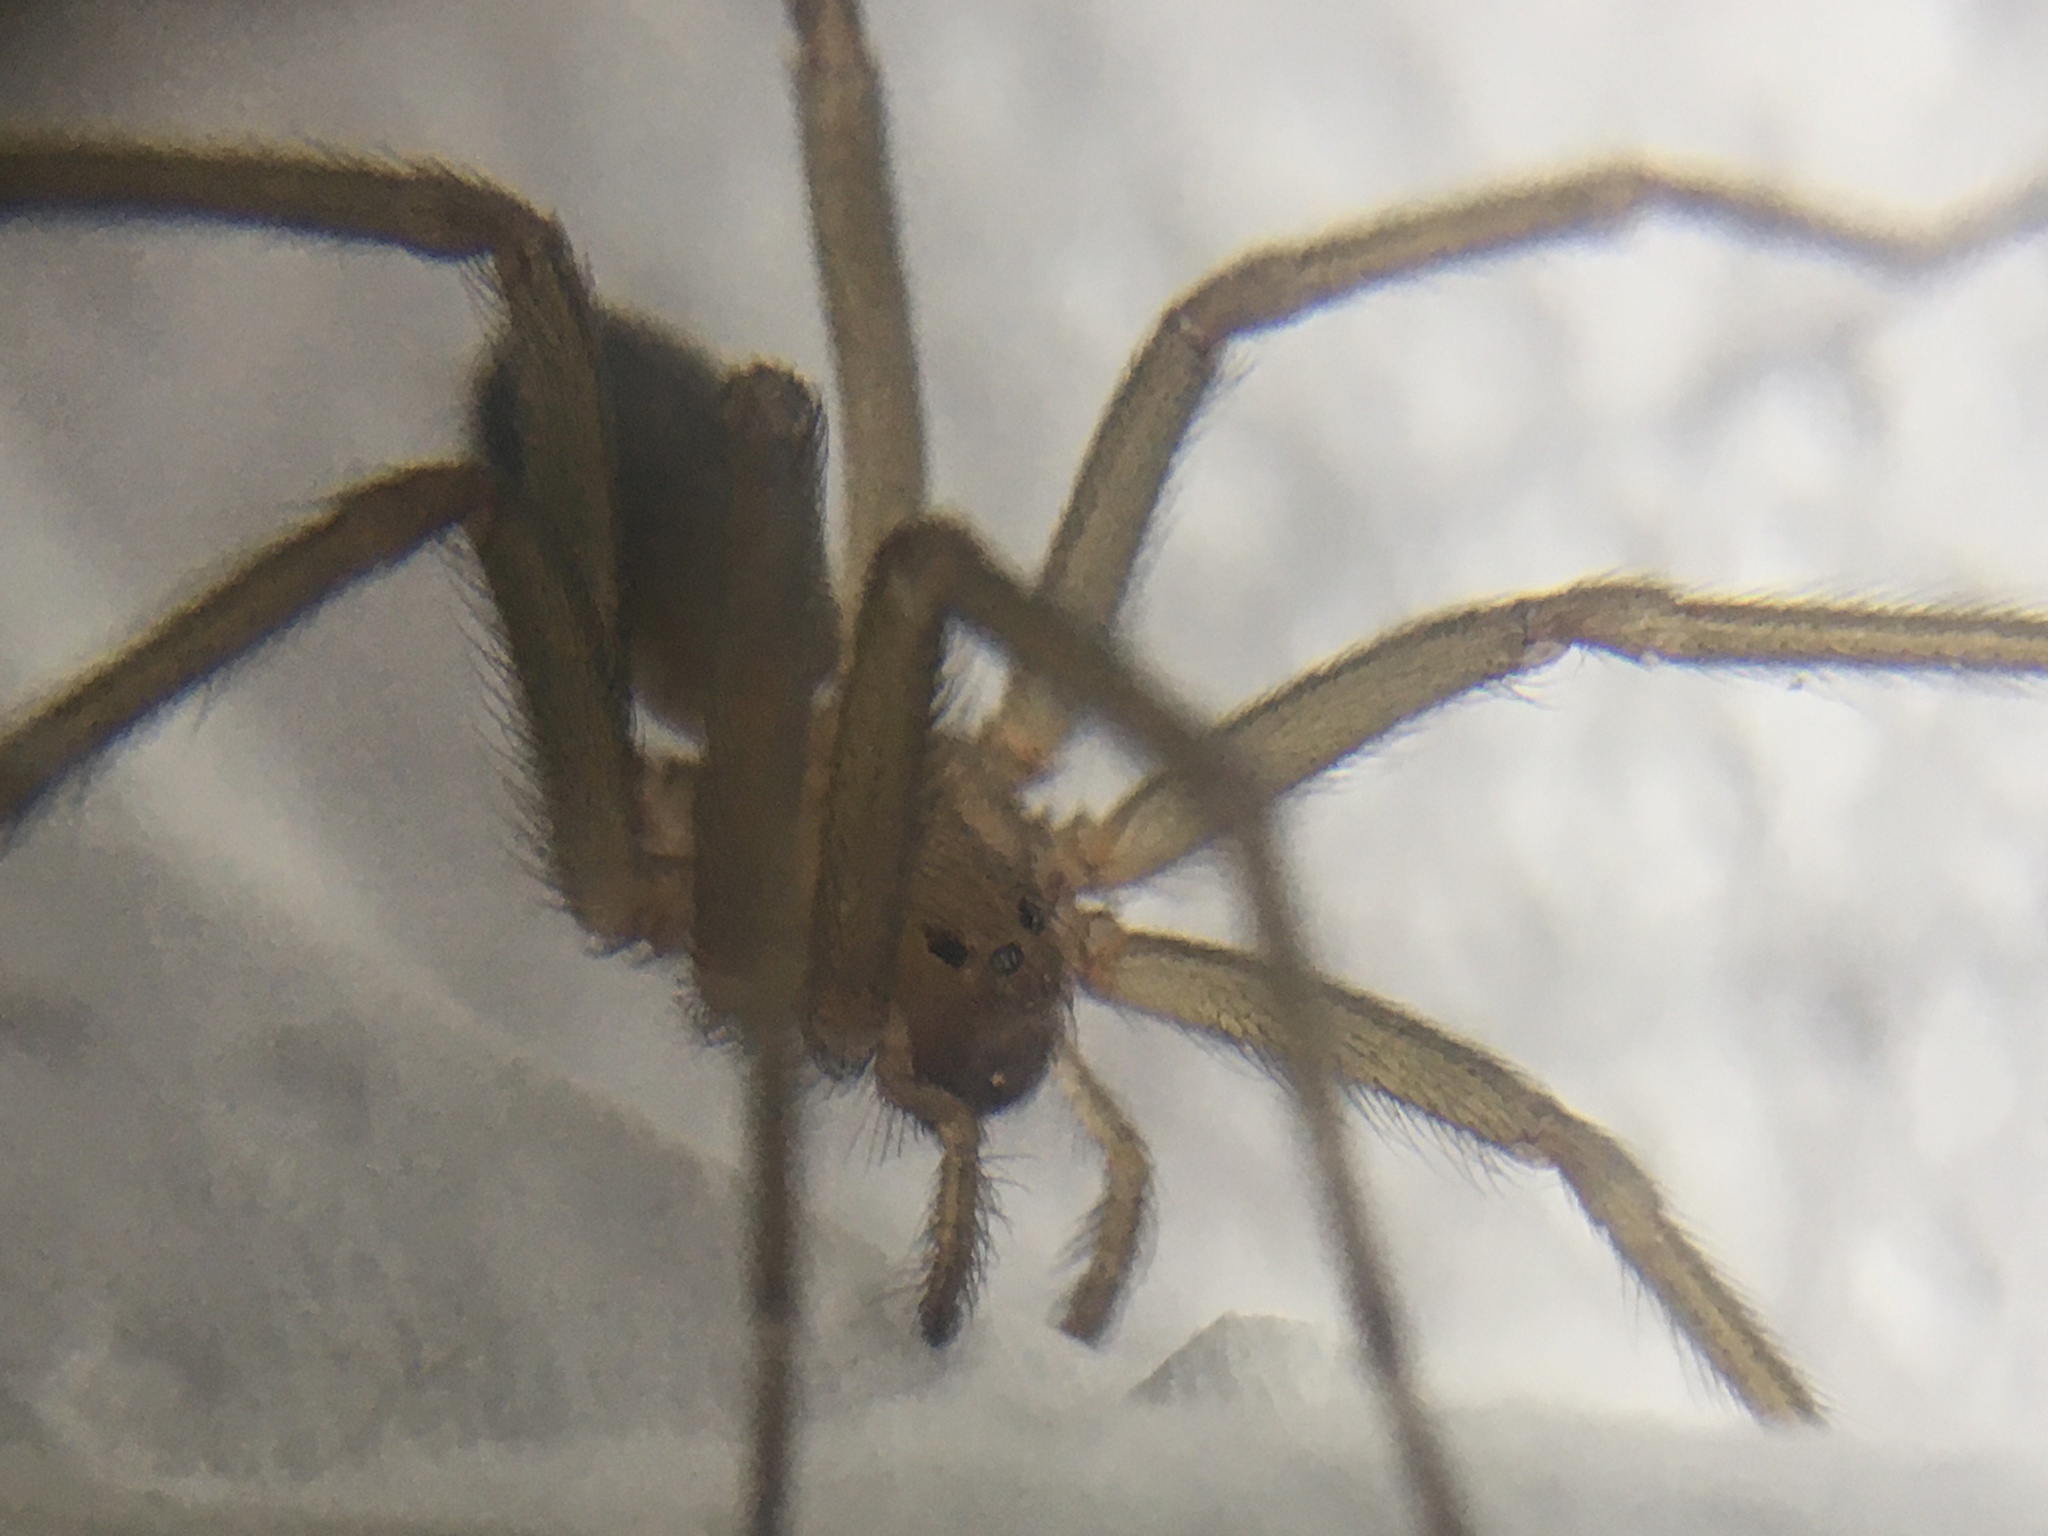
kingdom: Animalia
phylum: Arthropoda
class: Arachnida
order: Araneae
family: Sicariidae
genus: Loxosceles
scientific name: Loxosceles laeta
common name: Chilean recluse spider
